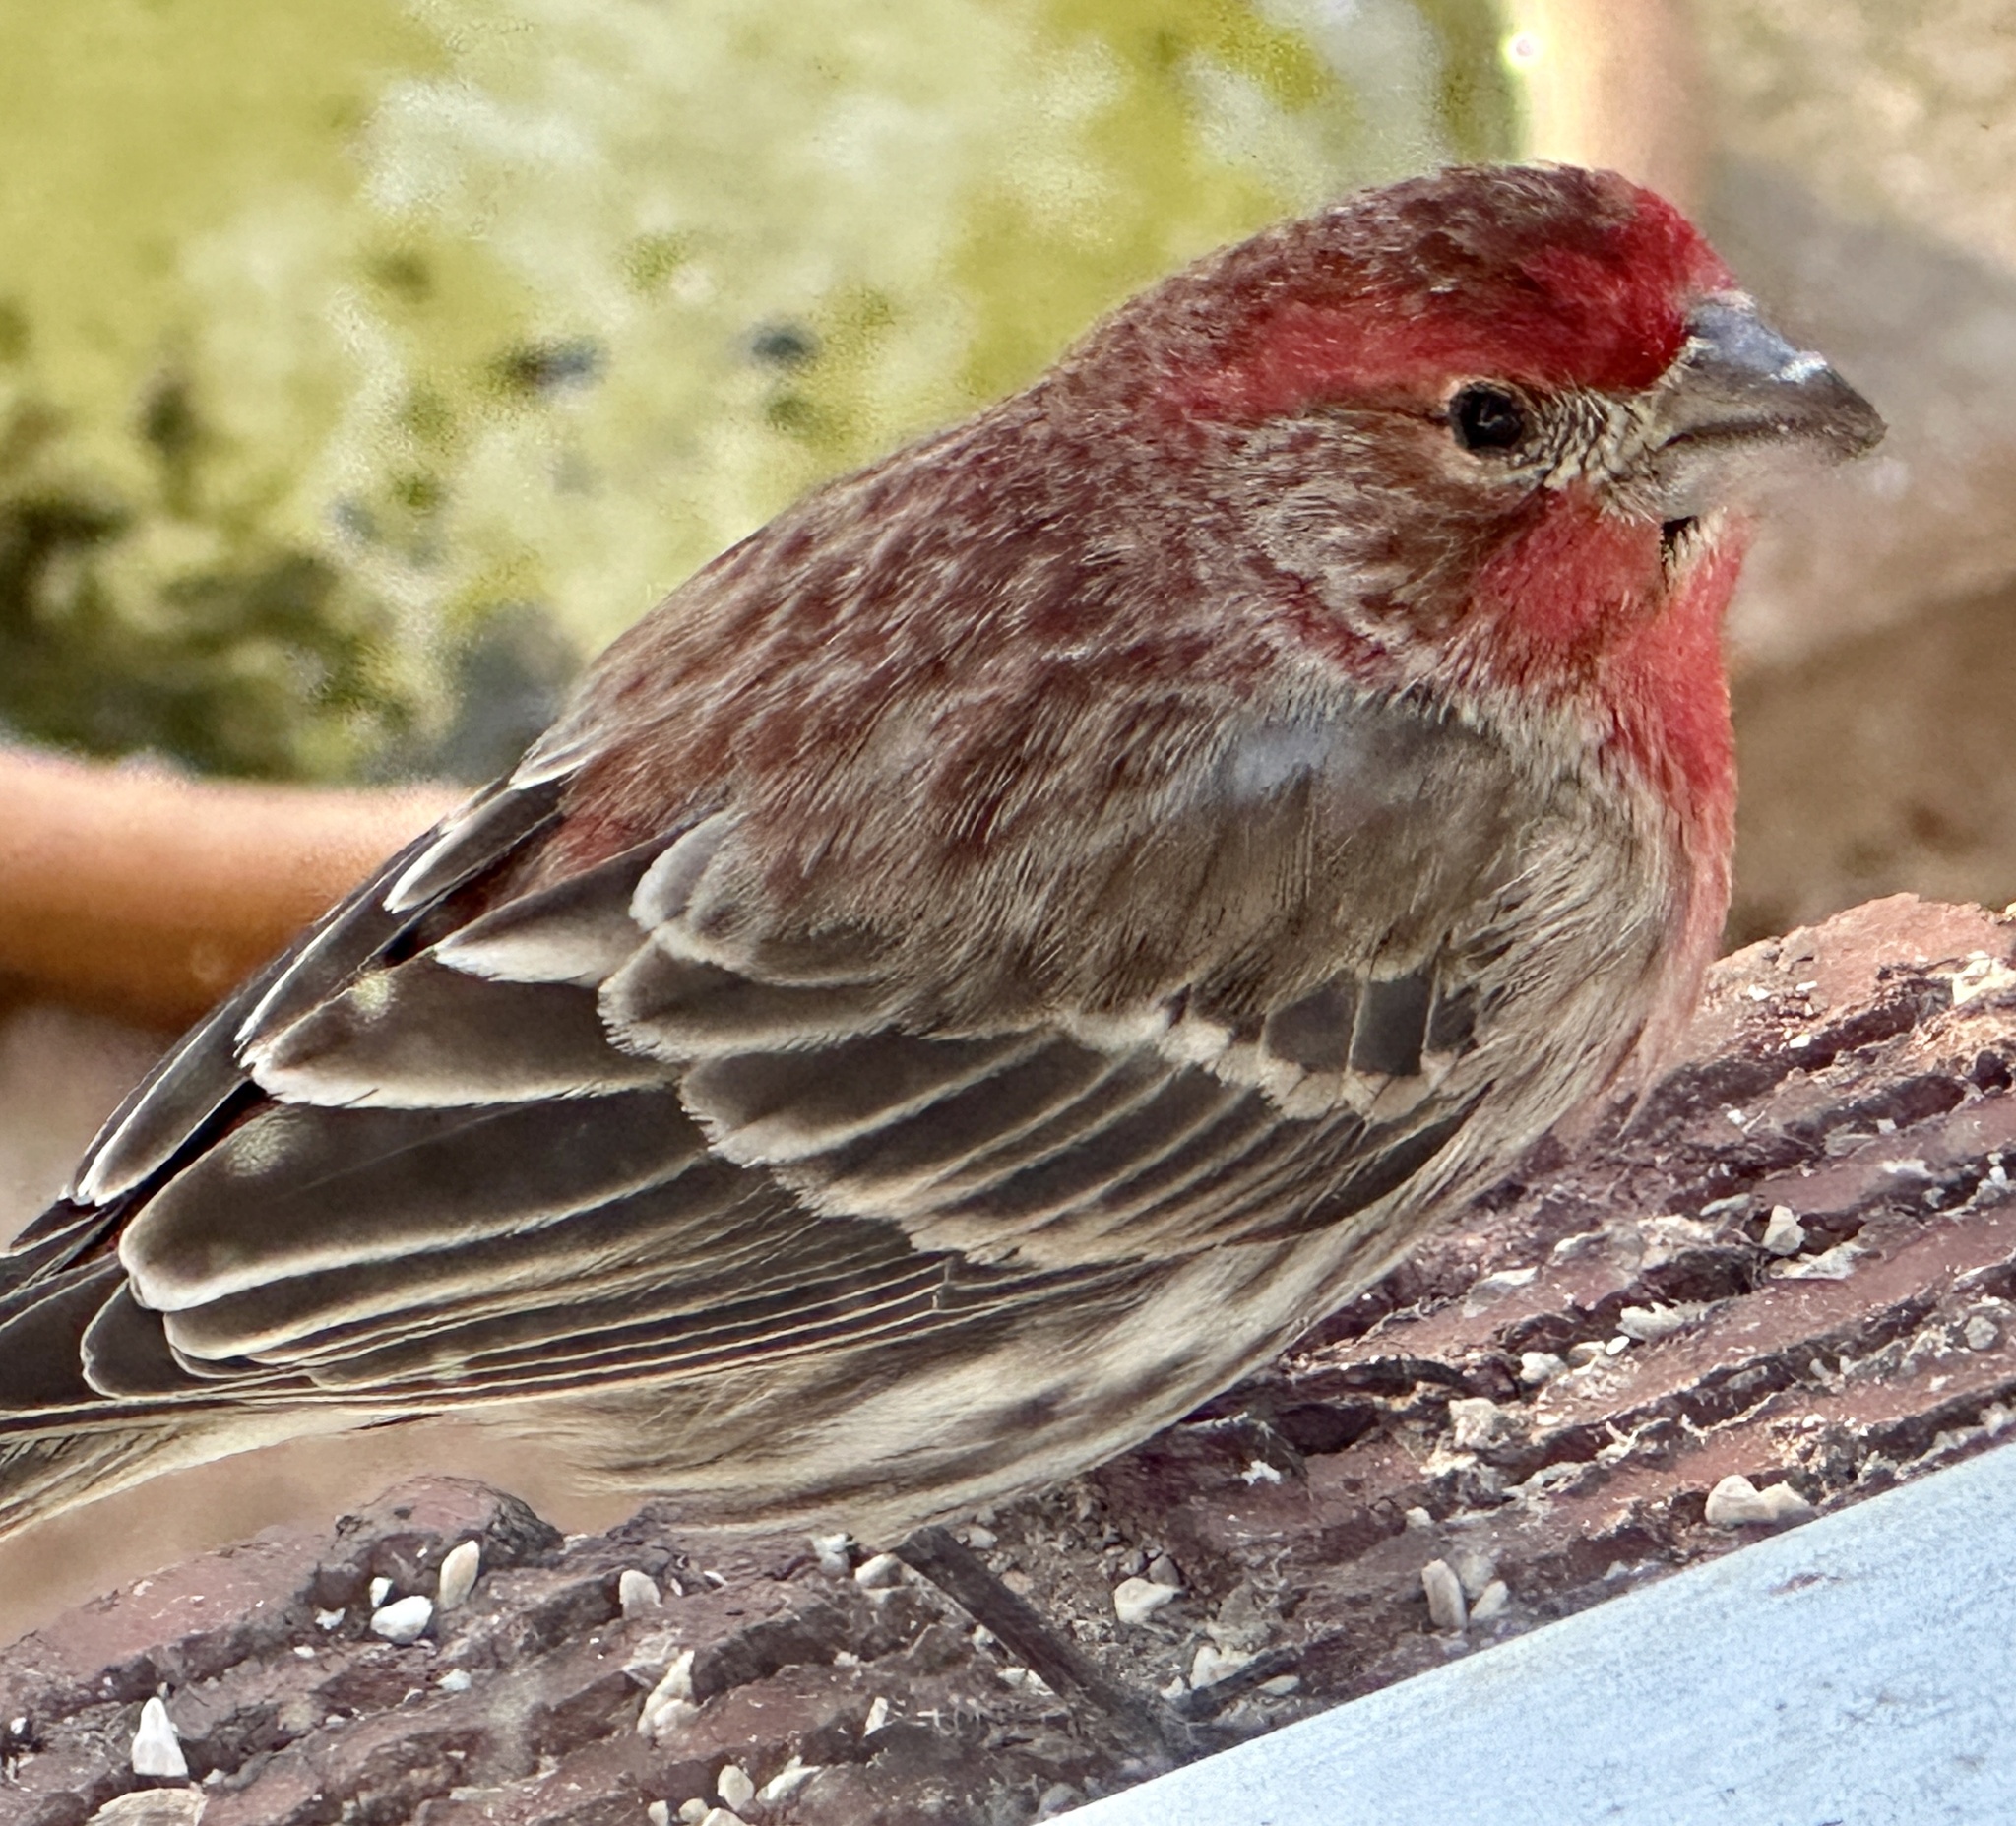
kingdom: Animalia
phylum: Chordata
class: Aves
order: Passeriformes
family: Fringillidae
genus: Haemorhous
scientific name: Haemorhous mexicanus
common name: House finch
